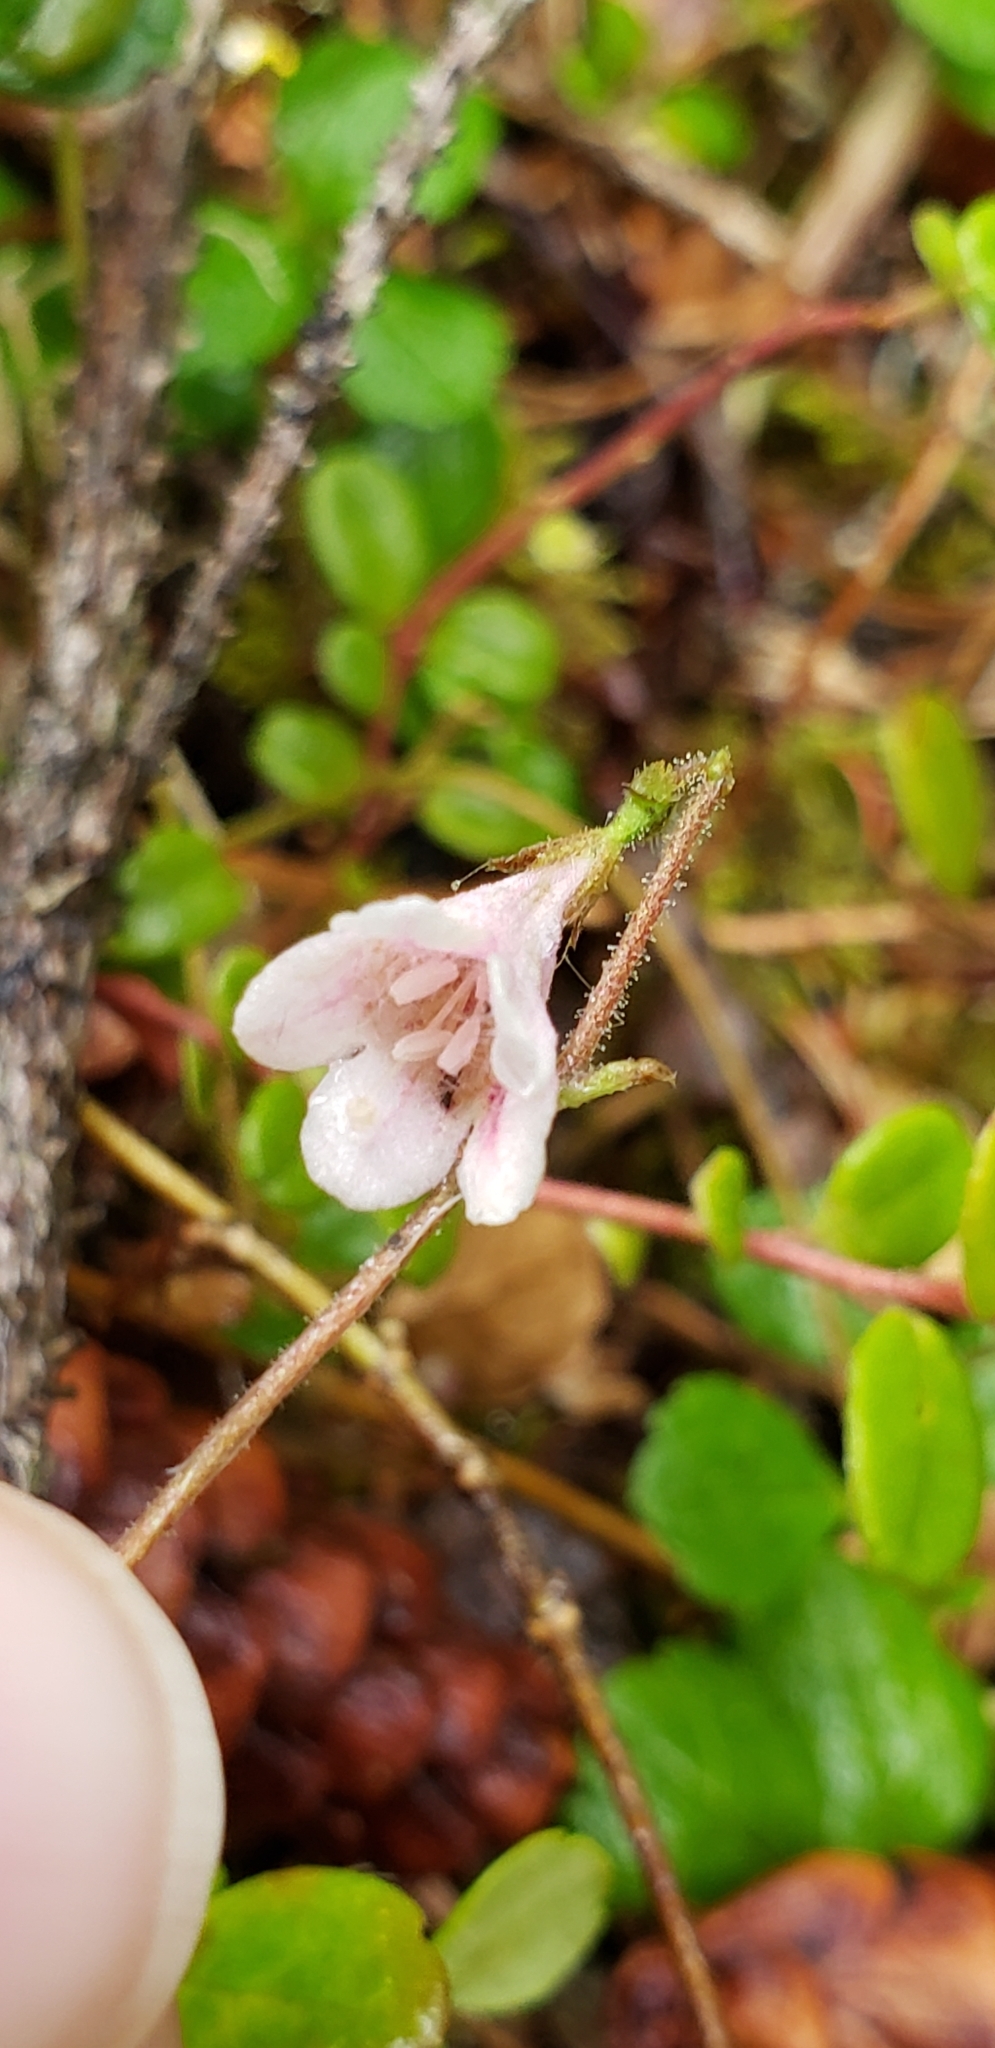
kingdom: Plantae
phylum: Tracheophyta
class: Magnoliopsida
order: Dipsacales
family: Caprifoliaceae
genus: Linnaea
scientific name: Linnaea borealis
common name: Twinflower
